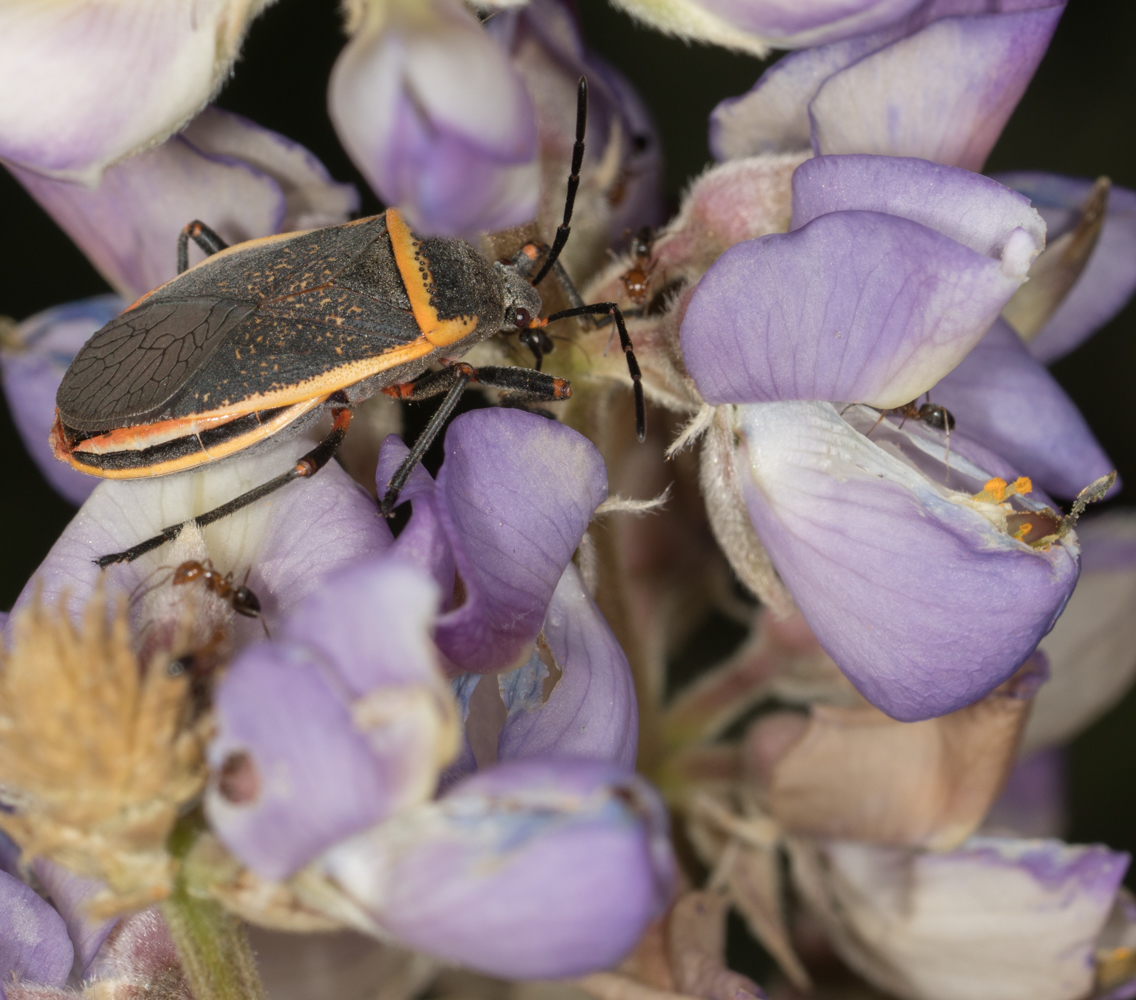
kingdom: Animalia
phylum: Arthropoda
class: Insecta
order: Hemiptera
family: Largidae
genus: Largus
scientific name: Largus californicus
